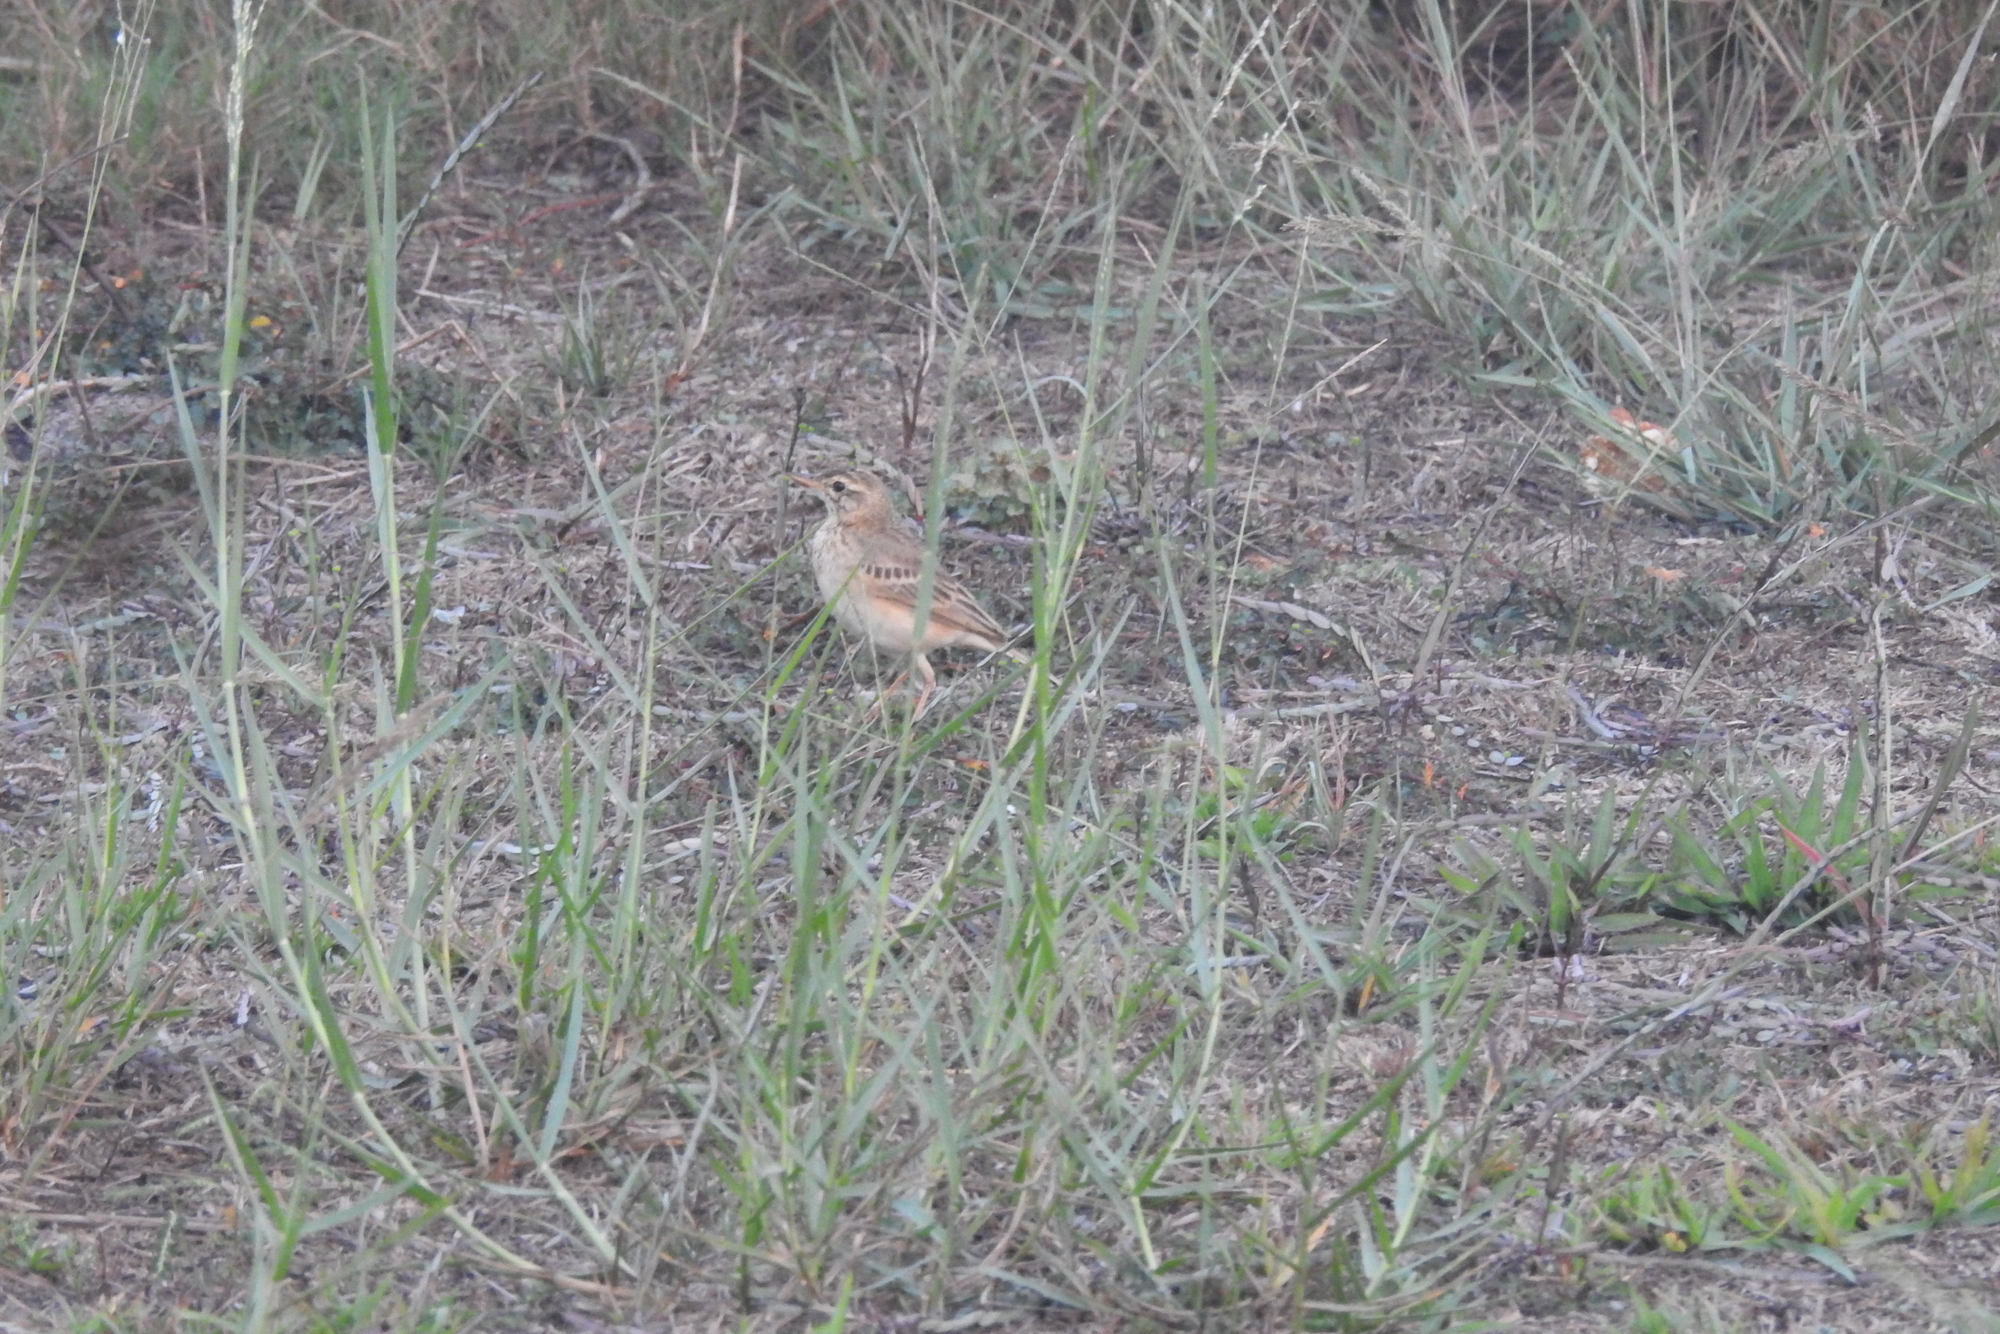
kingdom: Animalia
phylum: Chordata
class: Aves
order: Passeriformes
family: Motacillidae
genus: Anthus
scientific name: Anthus rufulus
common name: Paddyfield pipit
